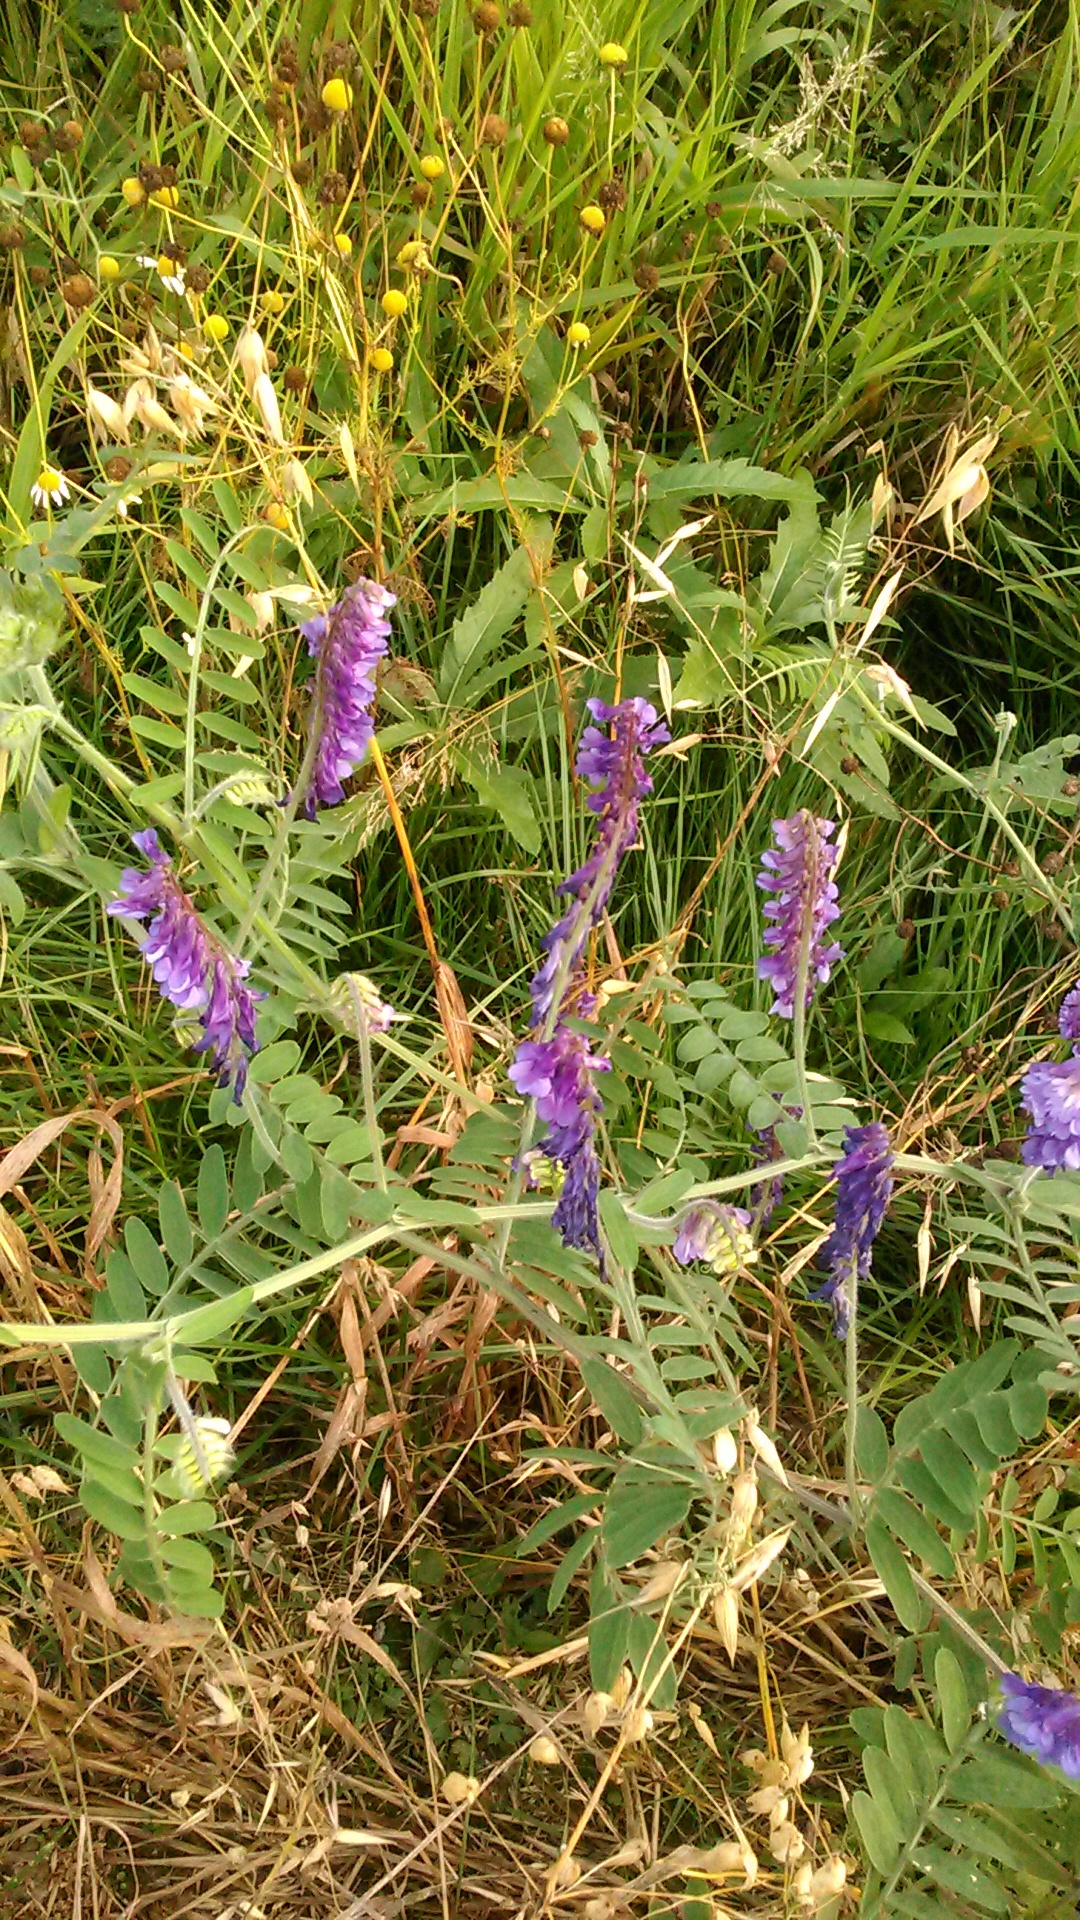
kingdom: Plantae
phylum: Tracheophyta
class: Magnoliopsida
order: Fabales
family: Fabaceae
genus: Vicia
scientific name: Vicia villosa
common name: Fodder vetch
